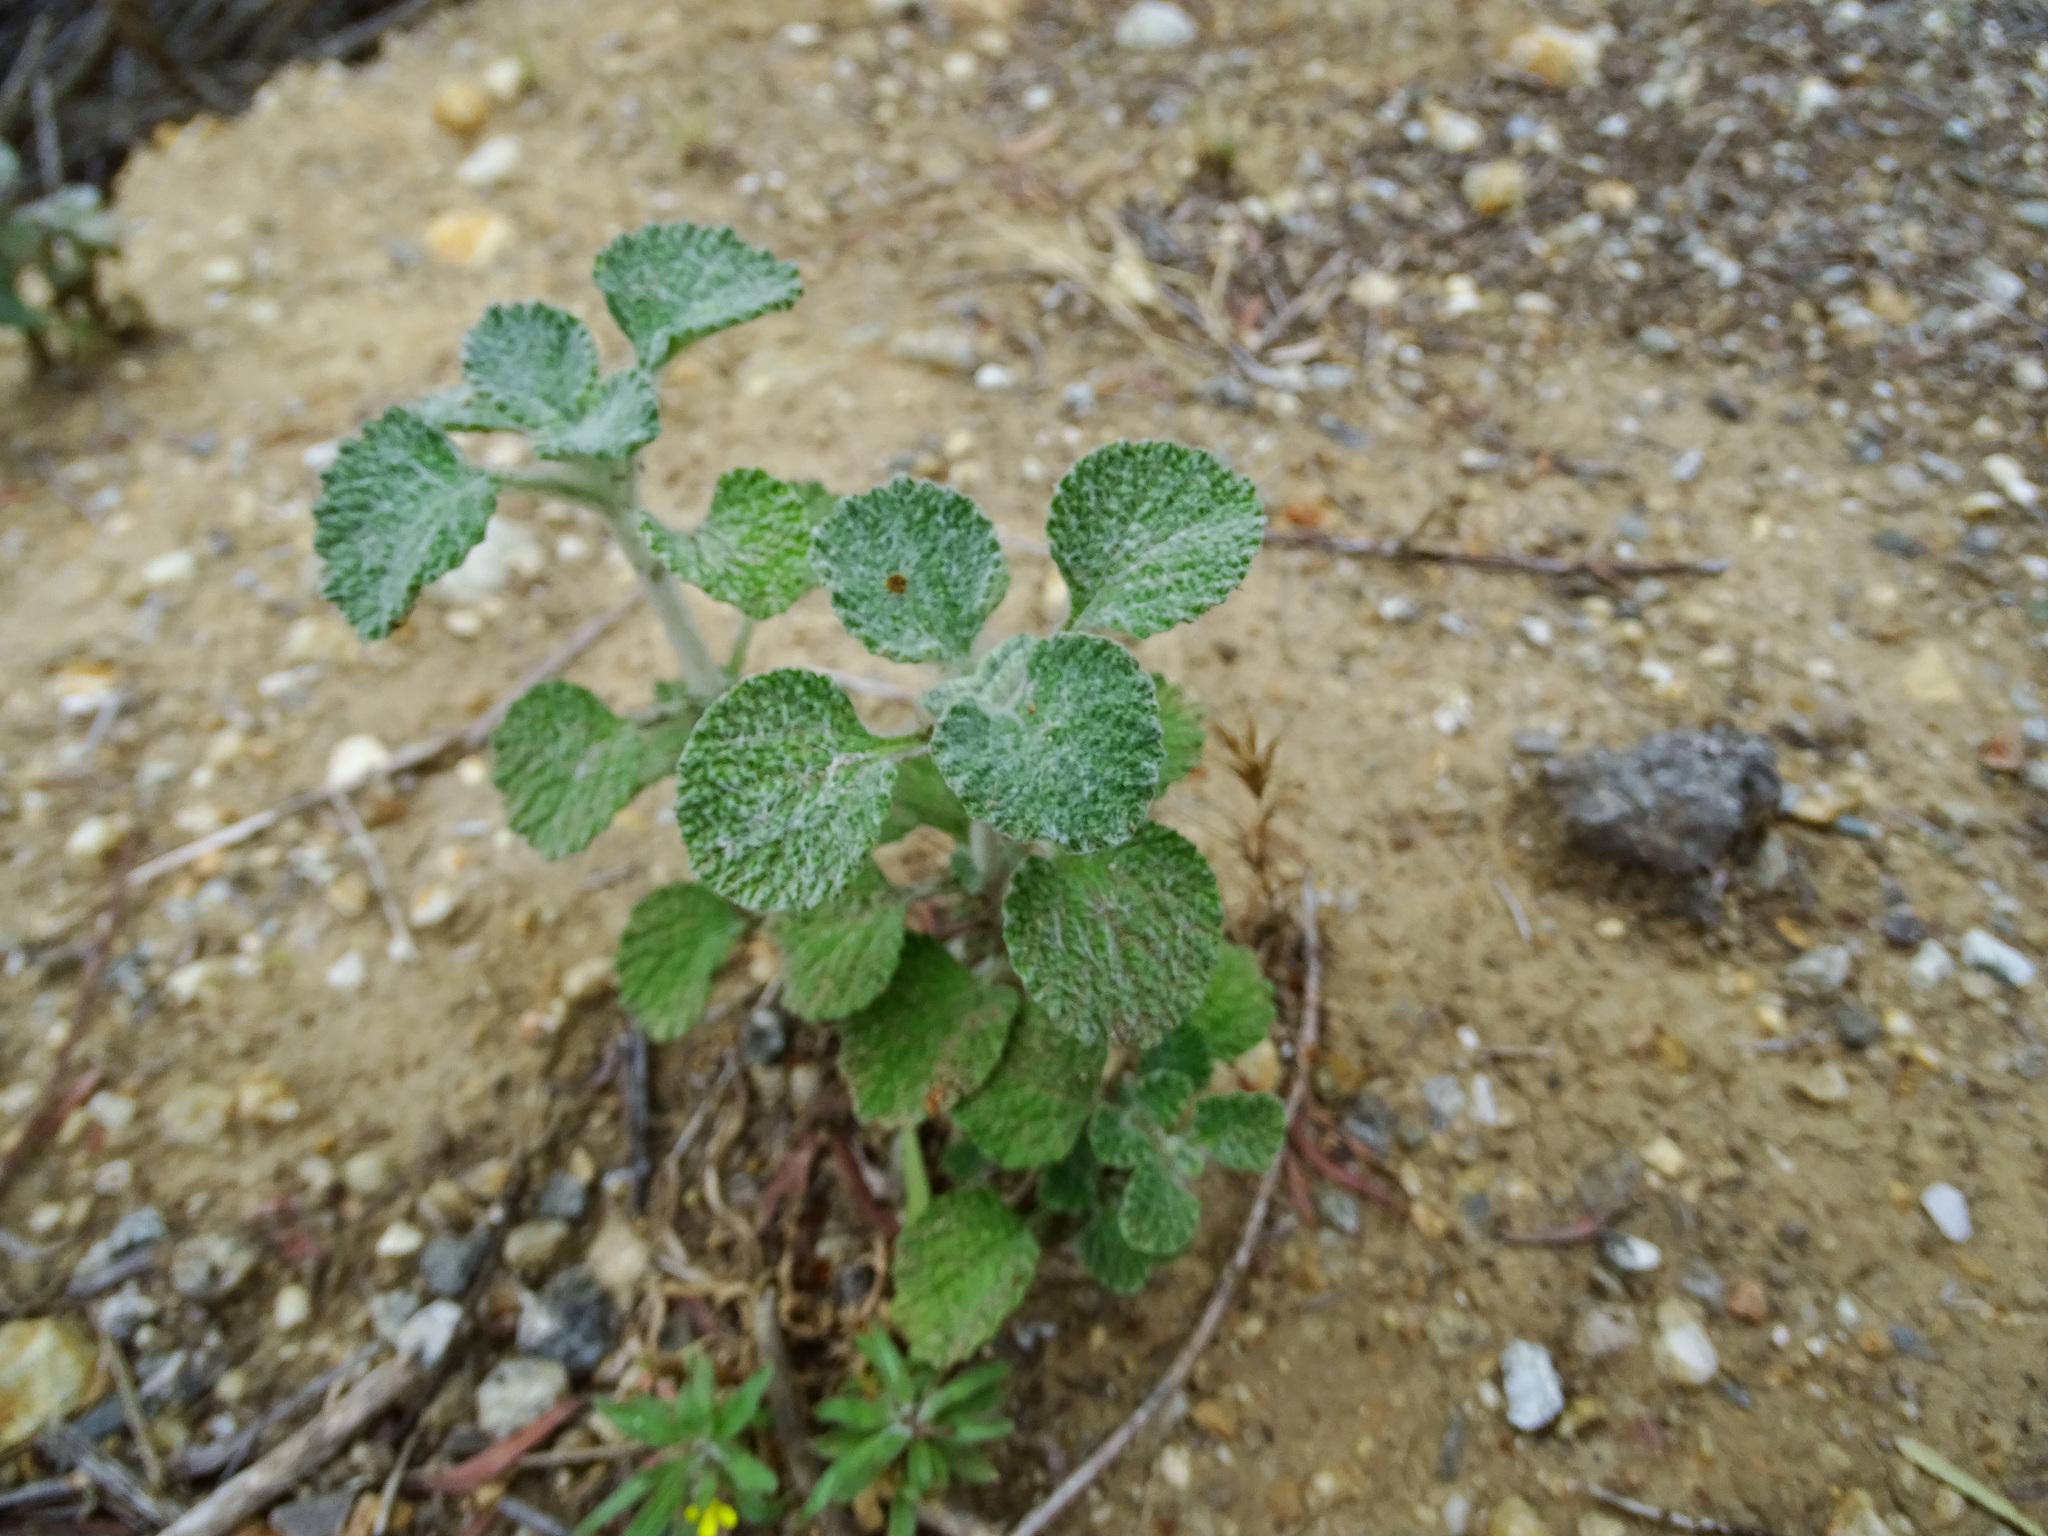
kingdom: Plantae
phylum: Tracheophyta
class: Magnoliopsida
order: Lamiales
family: Lamiaceae
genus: Marrubium
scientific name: Marrubium vulgare
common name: Horehound
